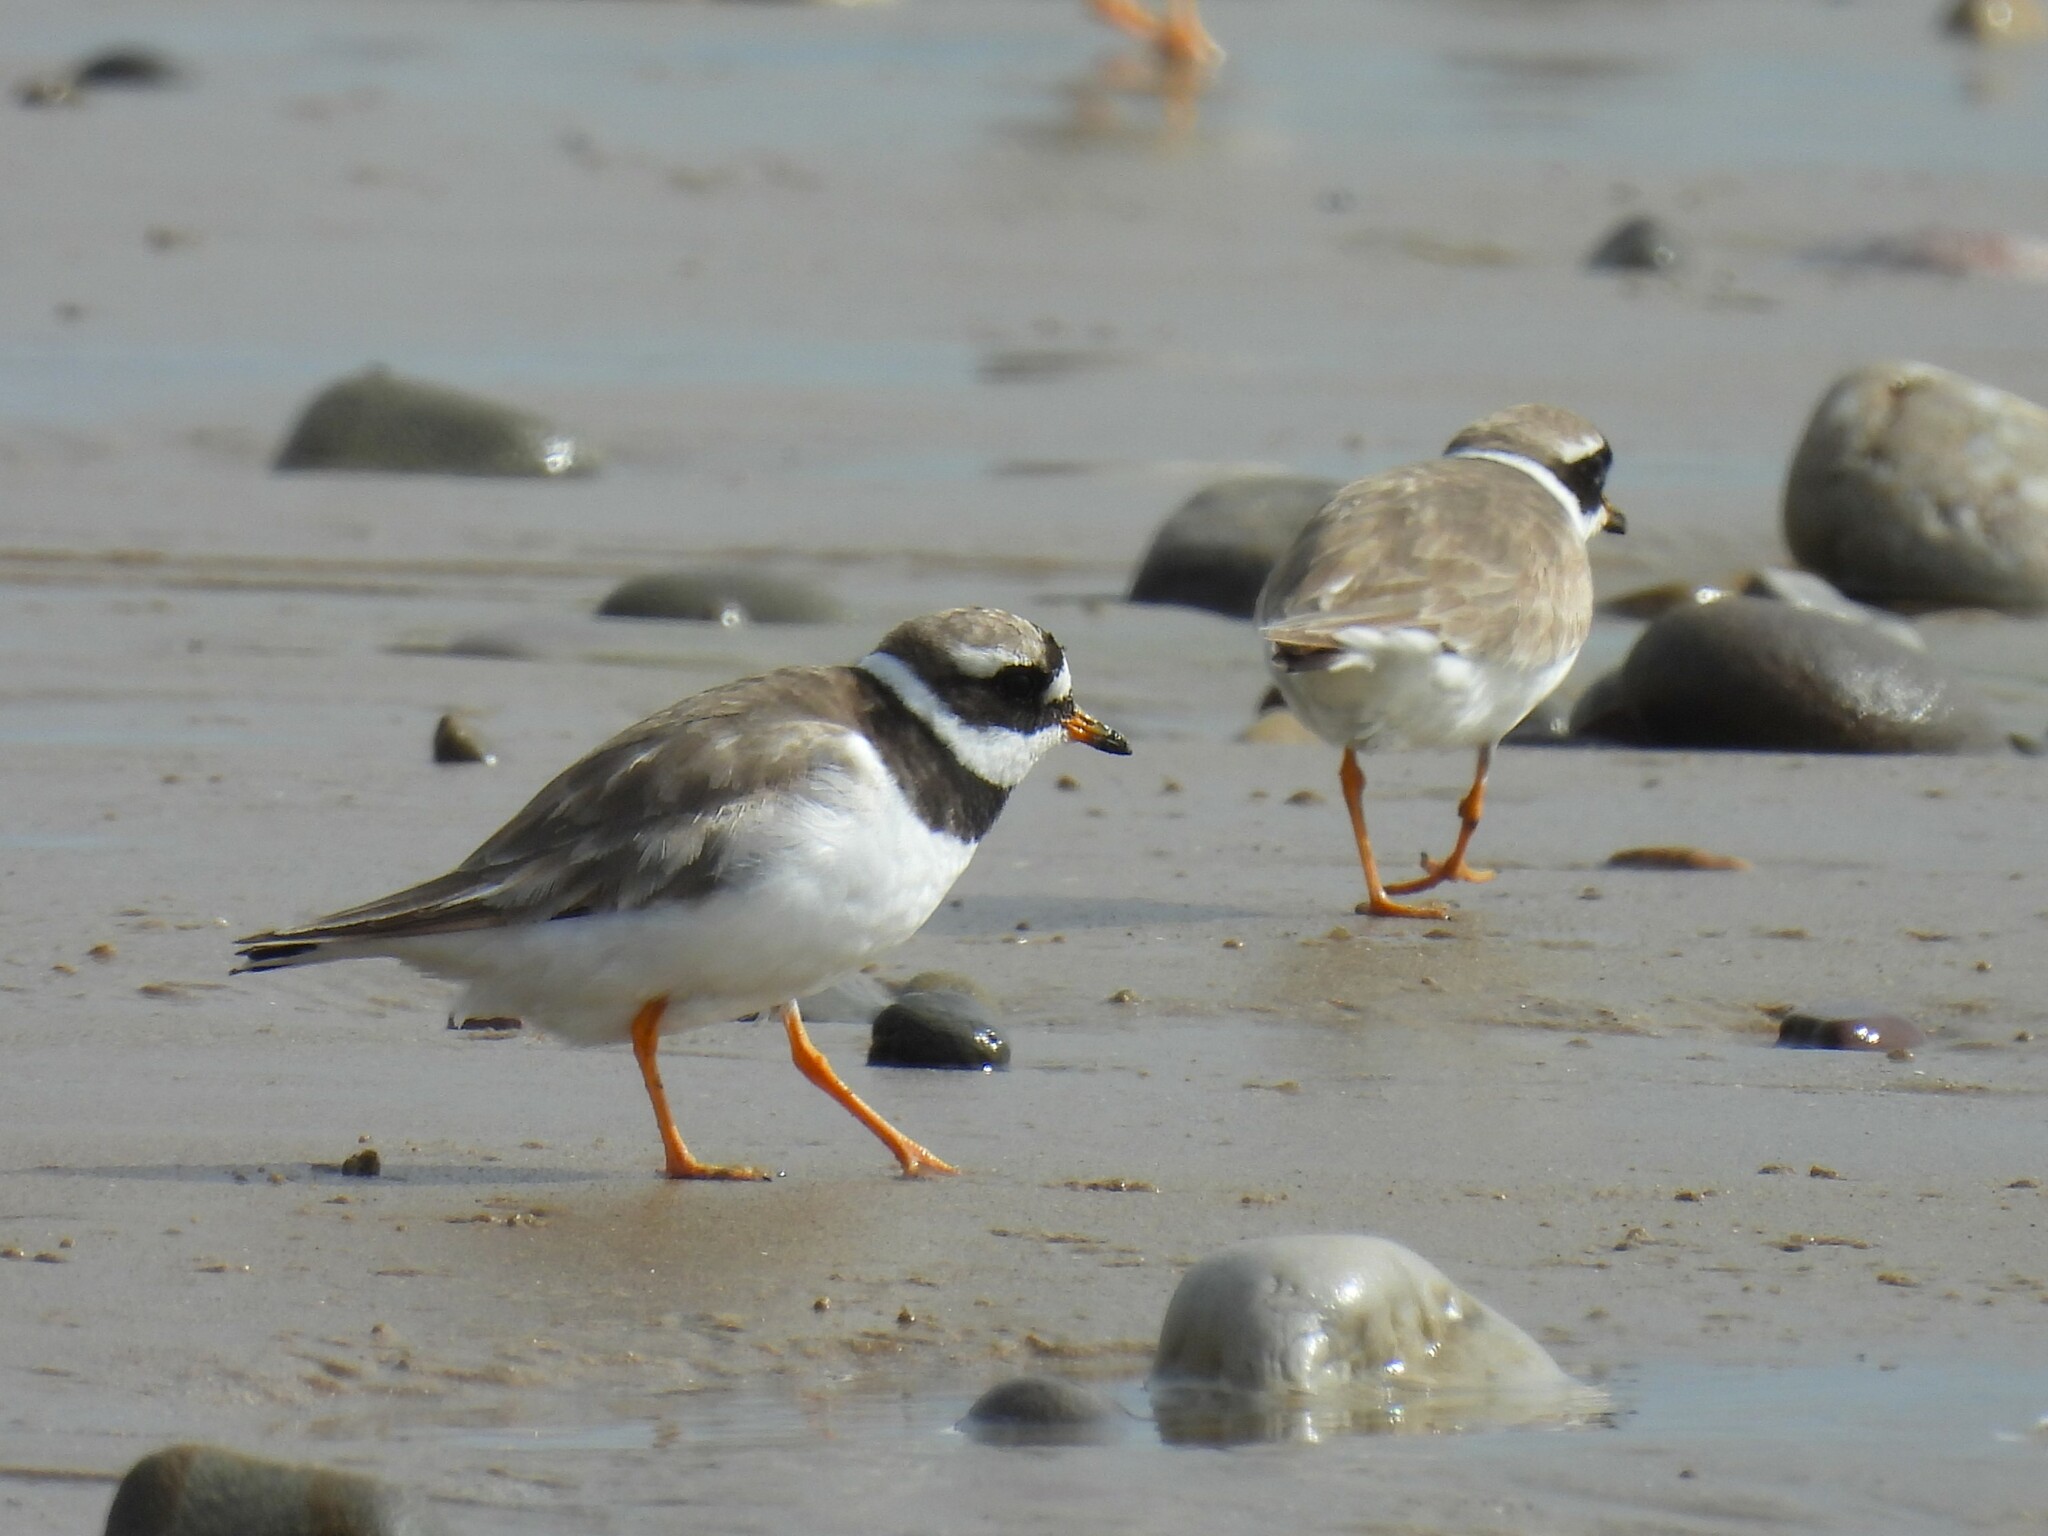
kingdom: Animalia
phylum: Chordata
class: Aves
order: Charadriiformes
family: Charadriidae
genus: Charadrius
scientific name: Charadrius hiaticula
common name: Common ringed plover
